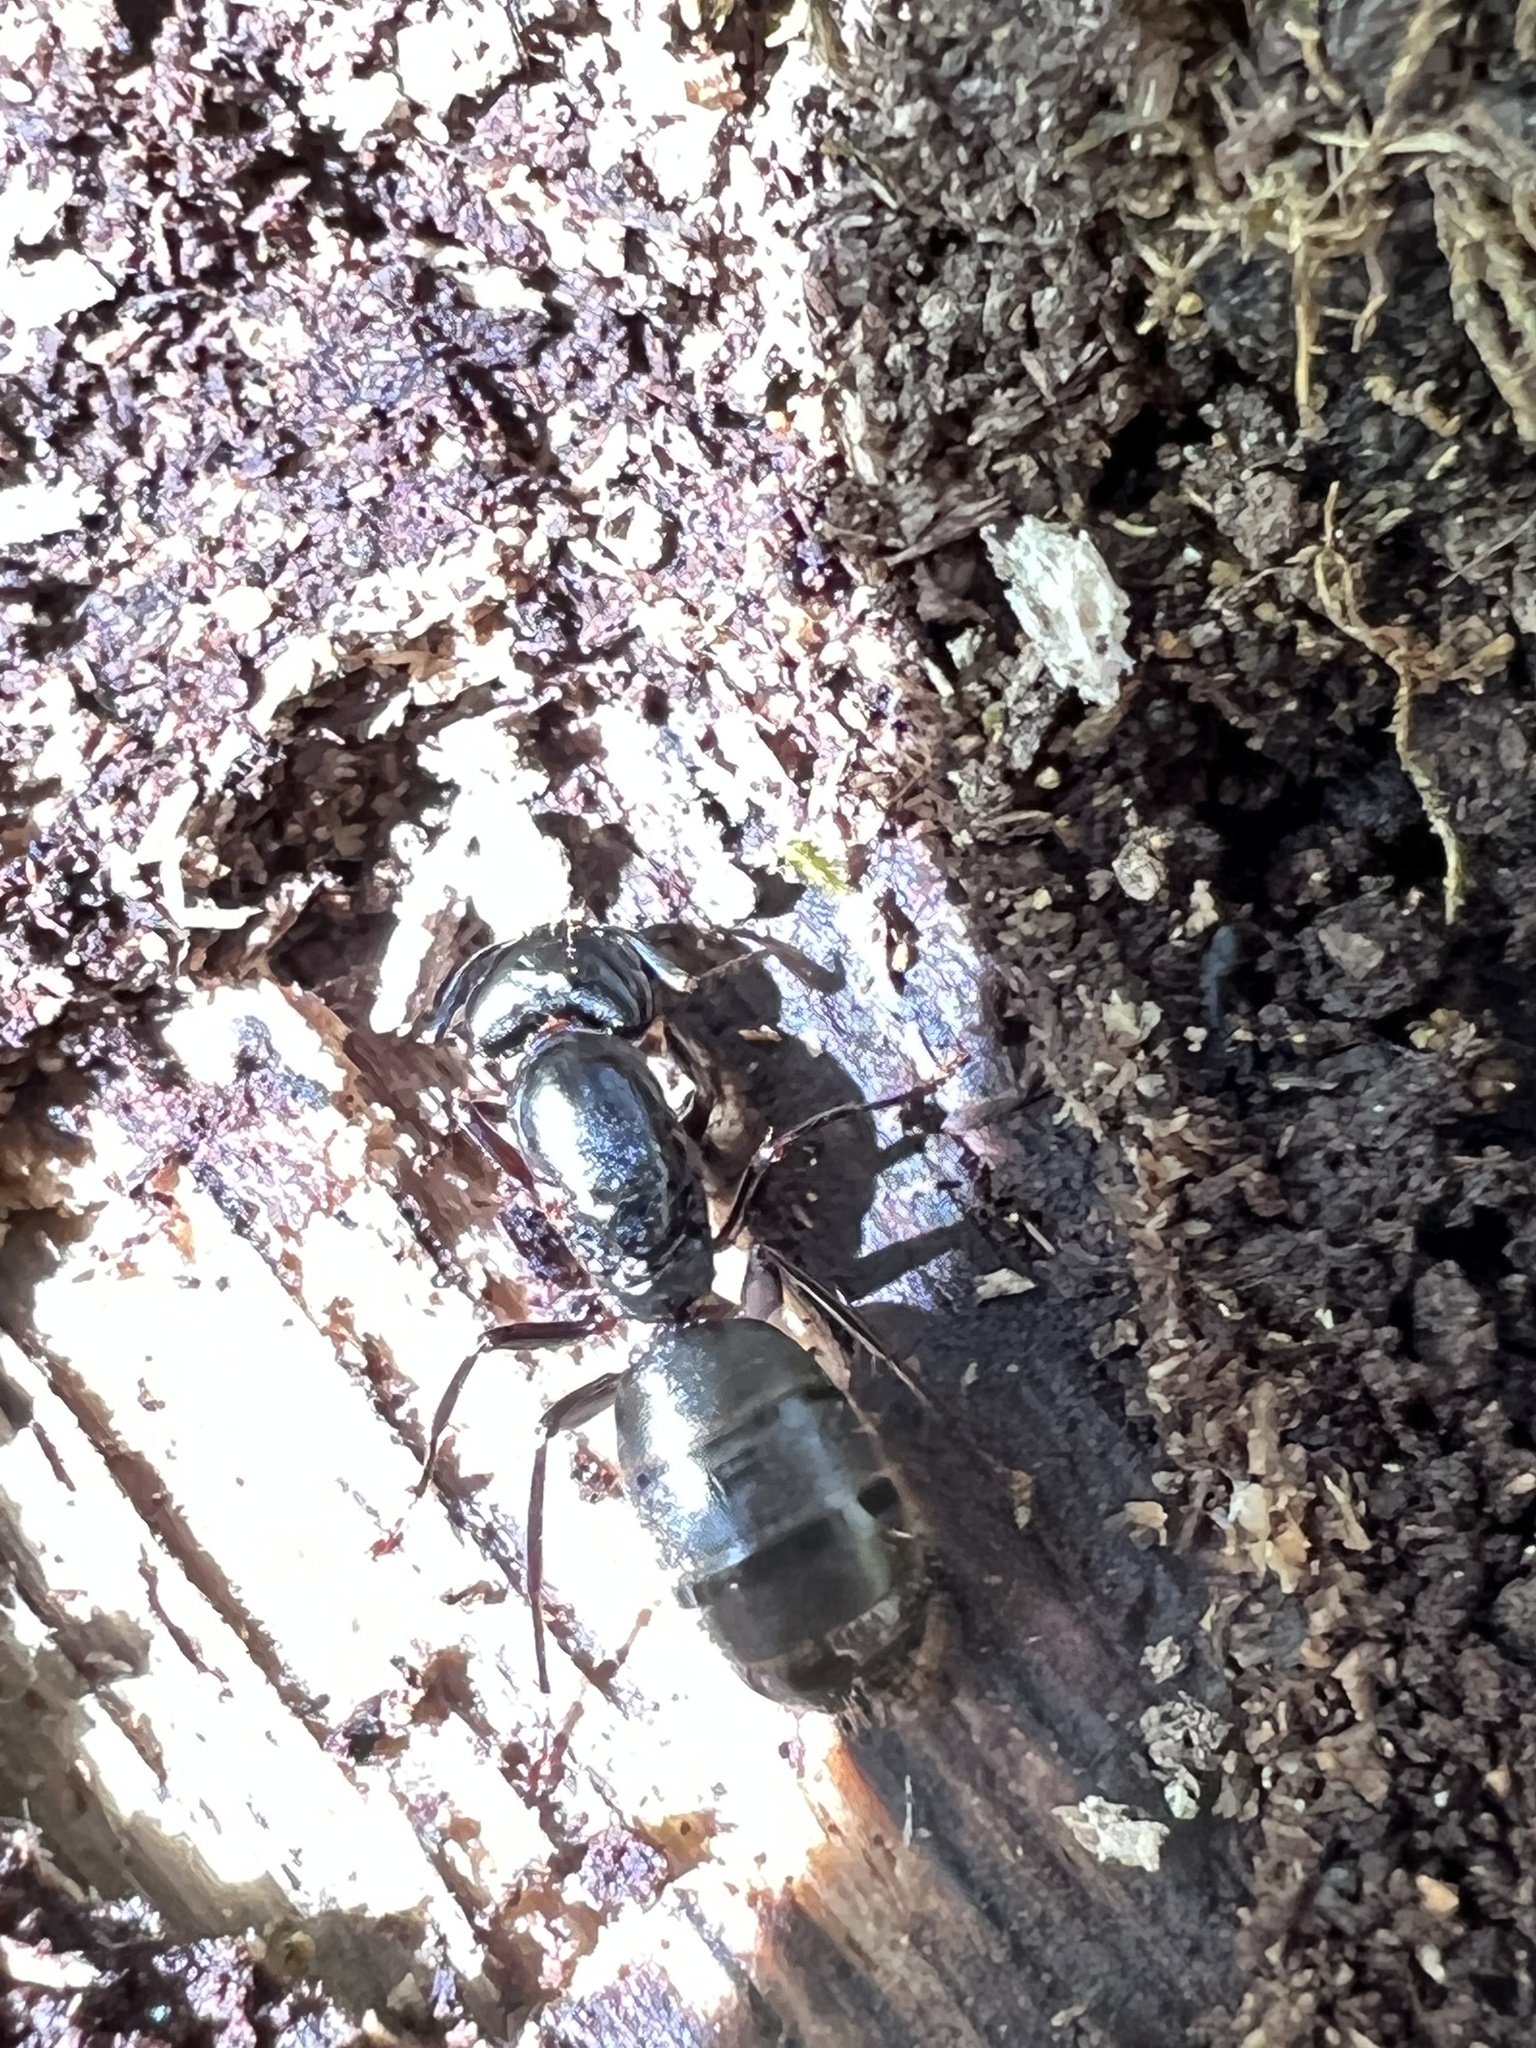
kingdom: Animalia
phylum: Arthropoda
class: Insecta
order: Hymenoptera
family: Formicidae
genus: Camponotus
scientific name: Camponotus pennsylvanicus
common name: Black carpenter ant
